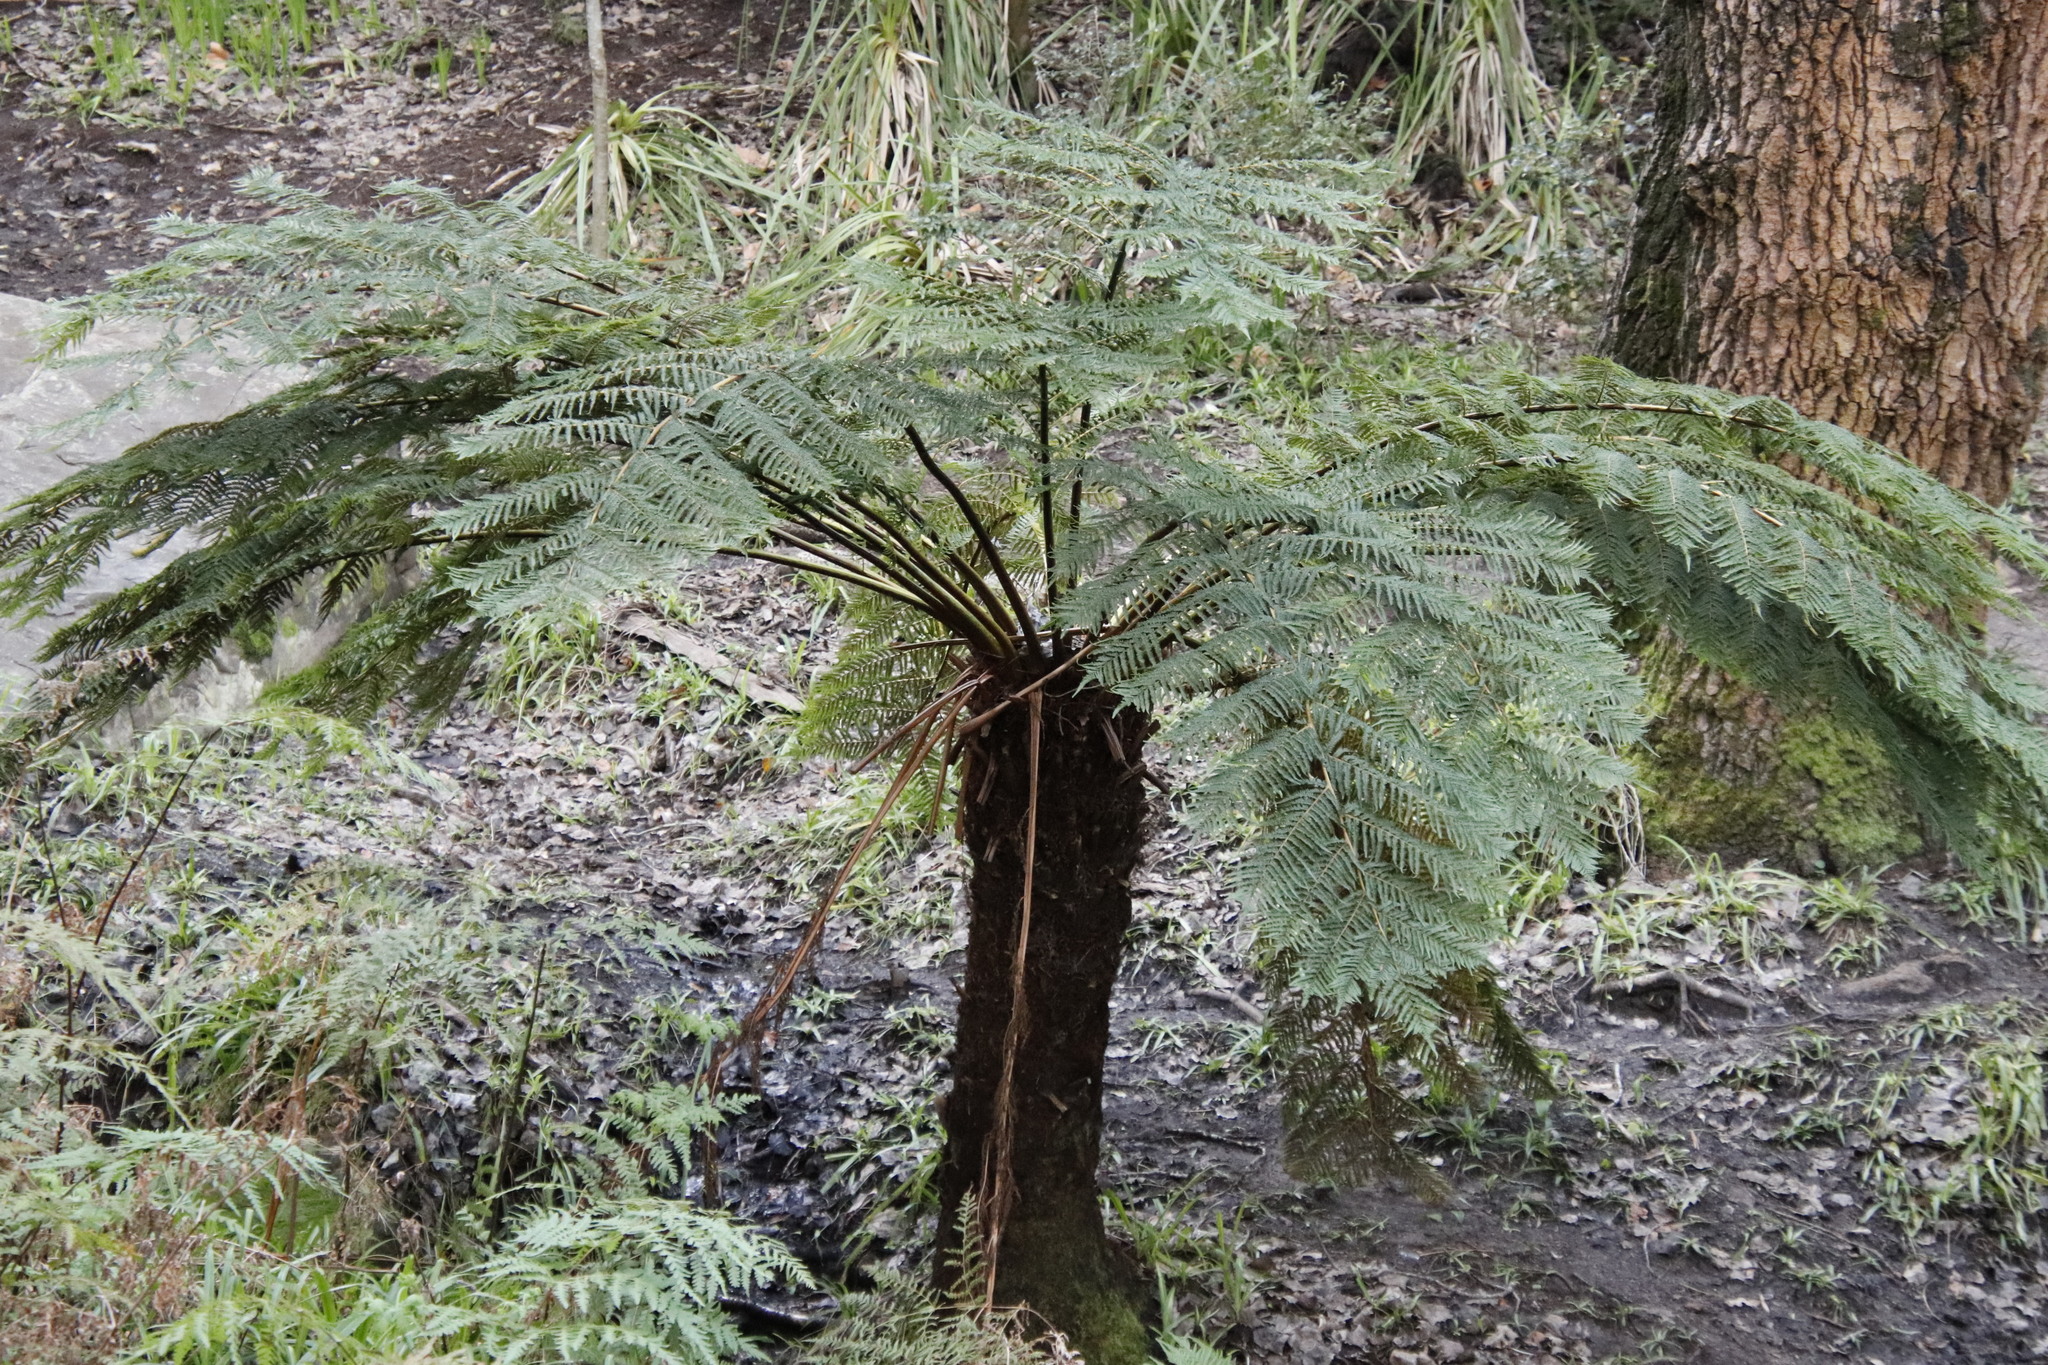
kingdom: Plantae
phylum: Tracheophyta
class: Polypodiopsida
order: Cyatheales
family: Cyatheaceae
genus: Alsophila
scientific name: Alsophila dregei
